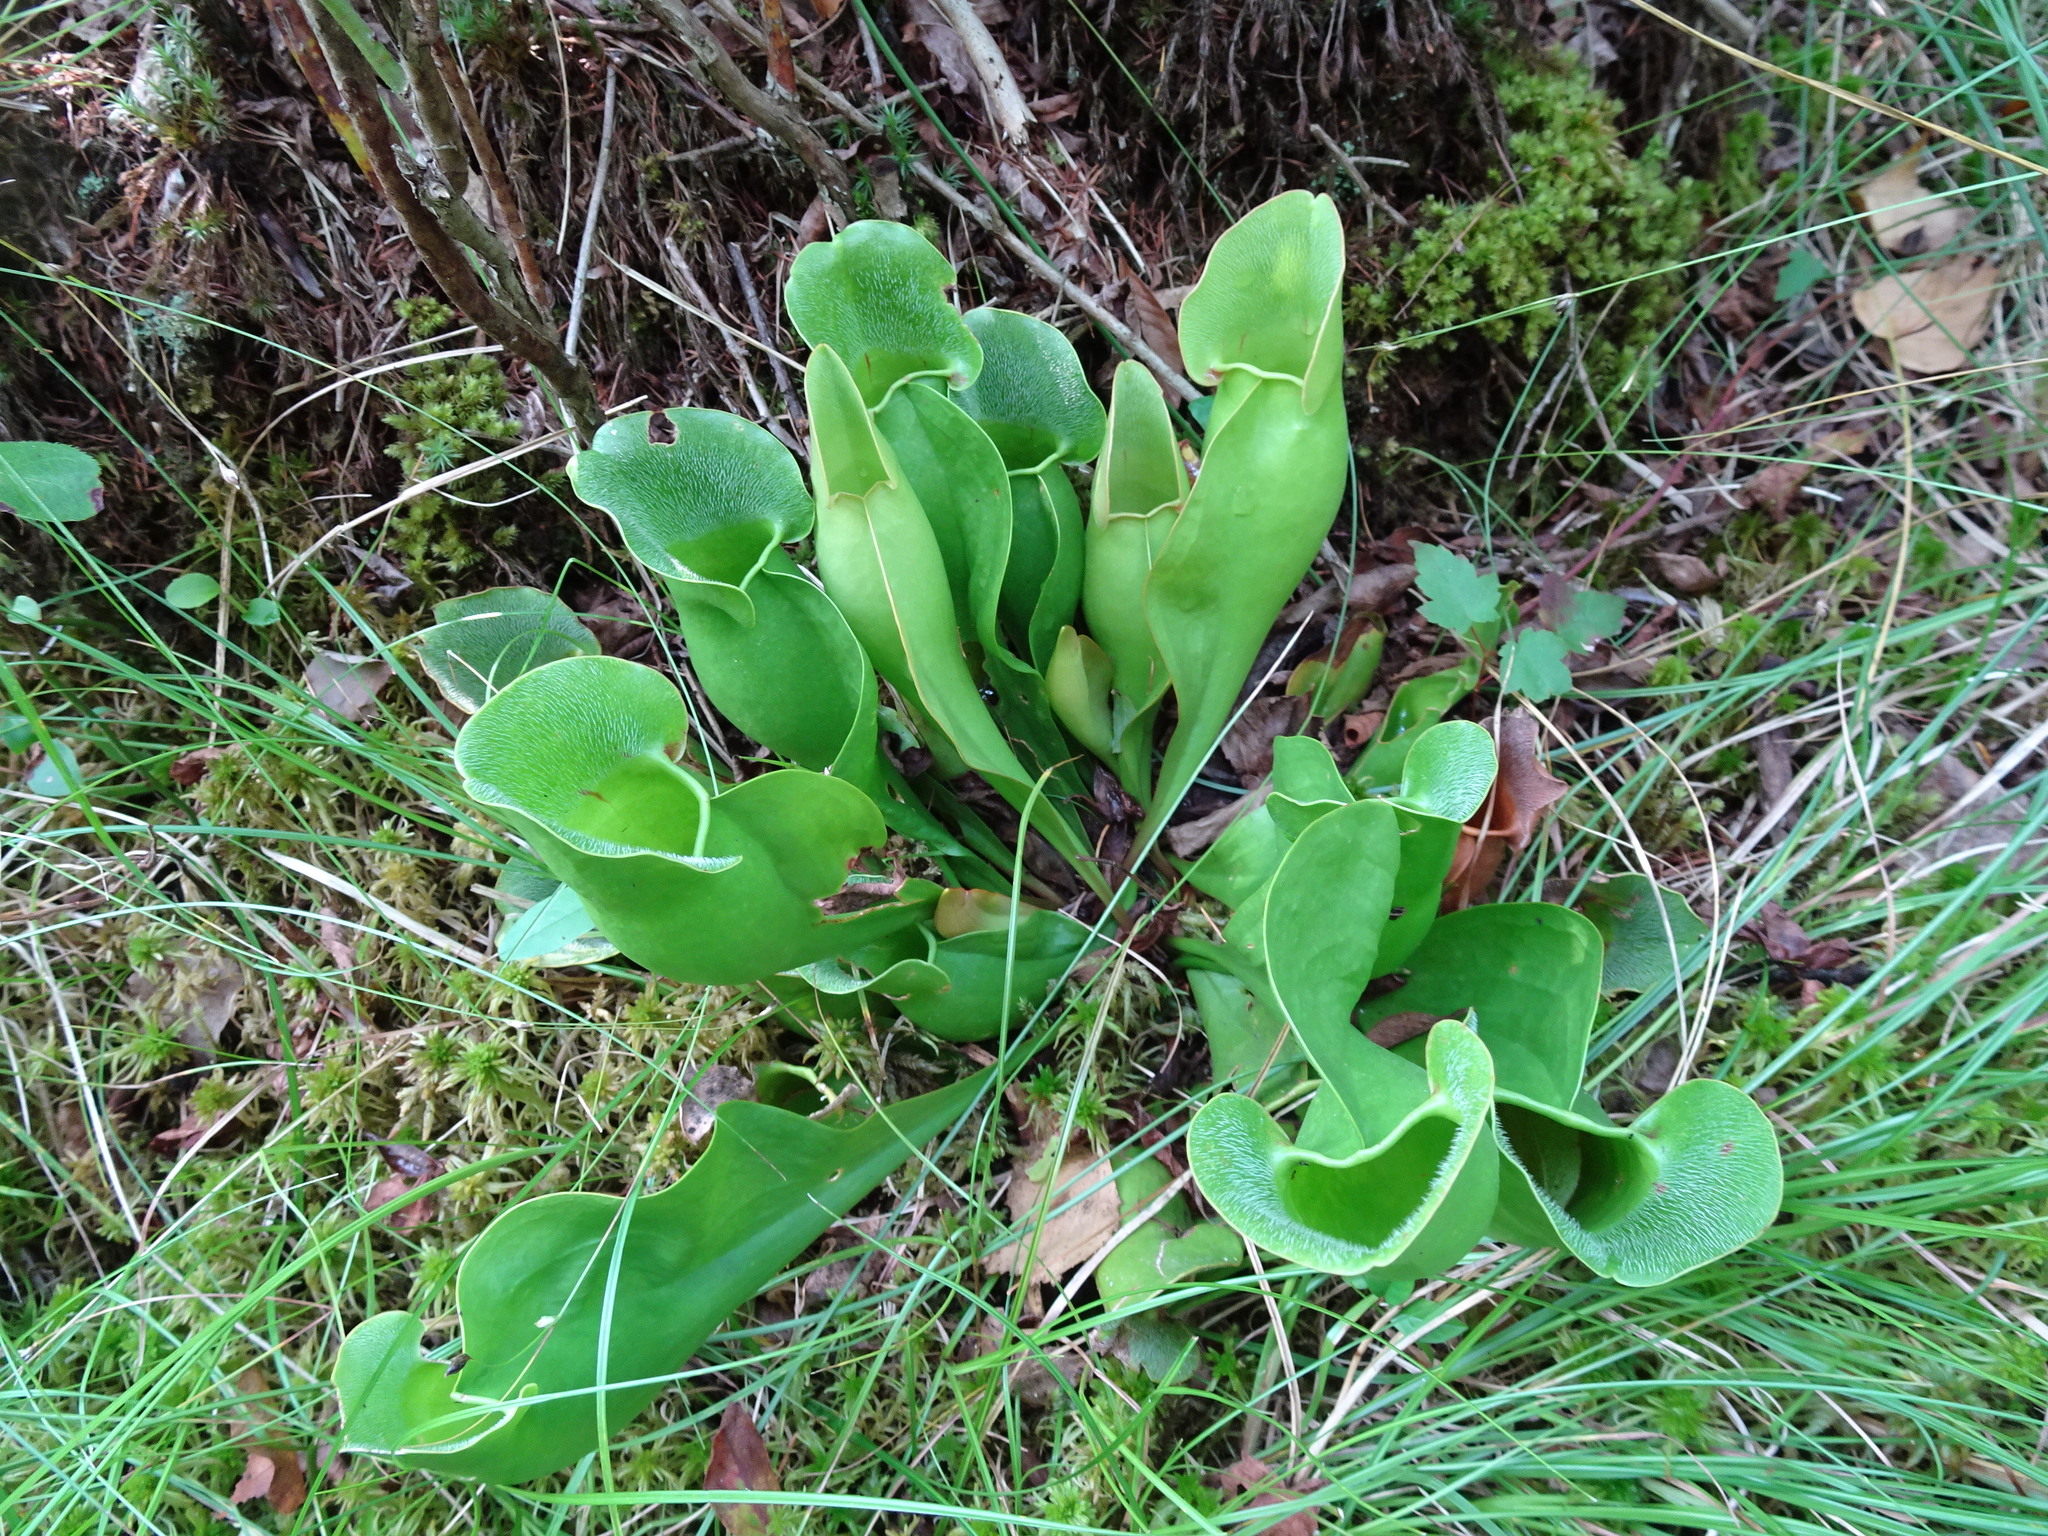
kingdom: Plantae
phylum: Tracheophyta
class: Magnoliopsida
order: Ericales
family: Sarraceniaceae
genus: Sarracenia
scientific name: Sarracenia purpurea
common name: Pitcherplant
